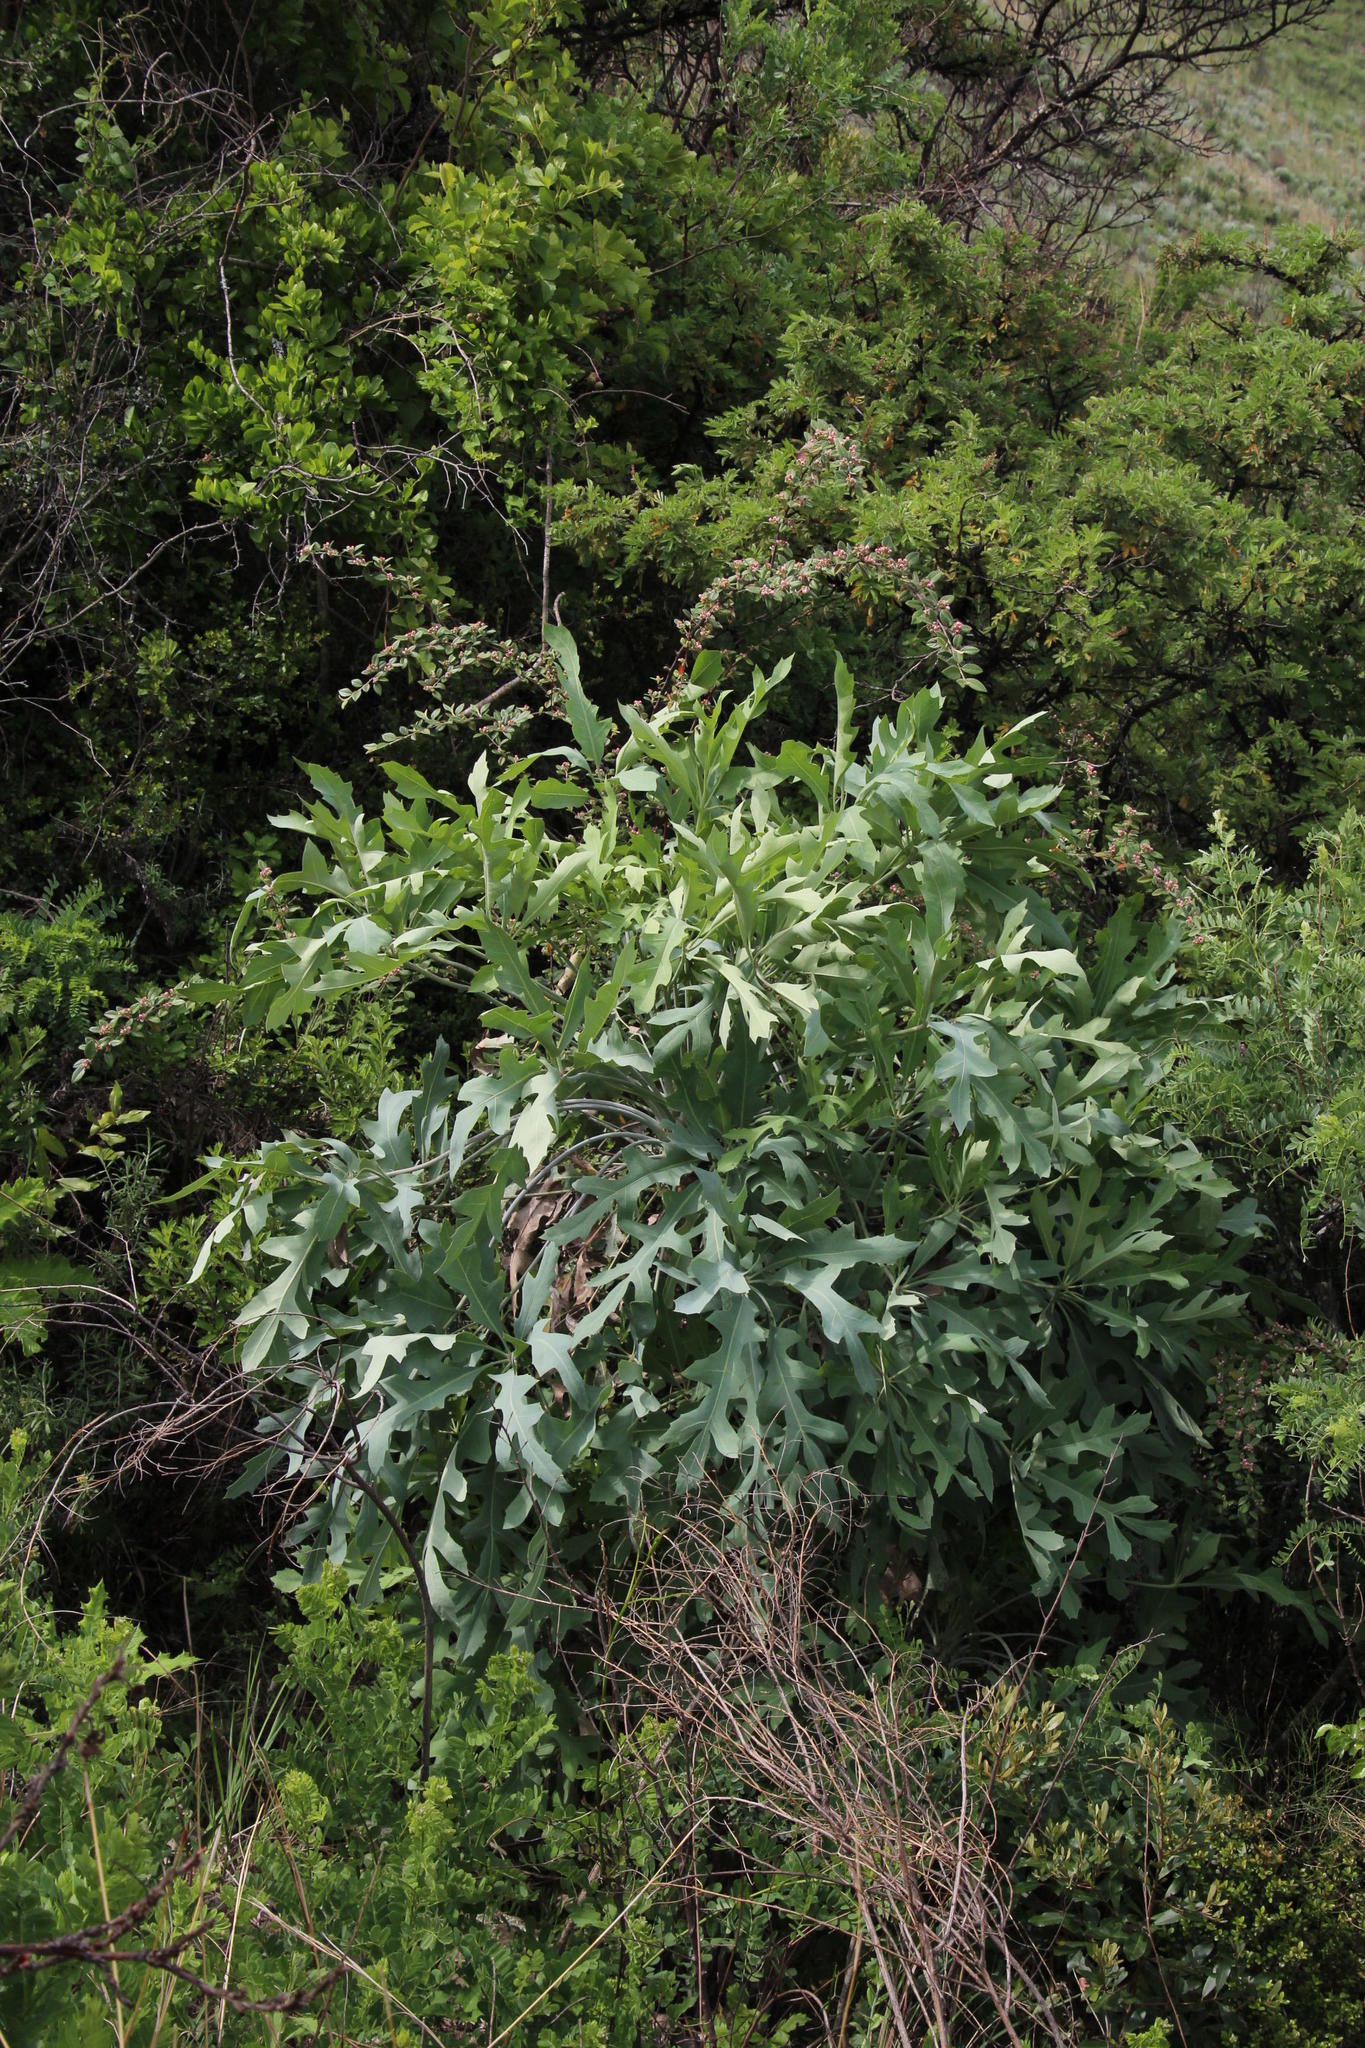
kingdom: Plantae
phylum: Tracheophyta
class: Magnoliopsida
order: Apiales
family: Araliaceae
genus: Cussonia
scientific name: Cussonia paniculata
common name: Cabbagetree
